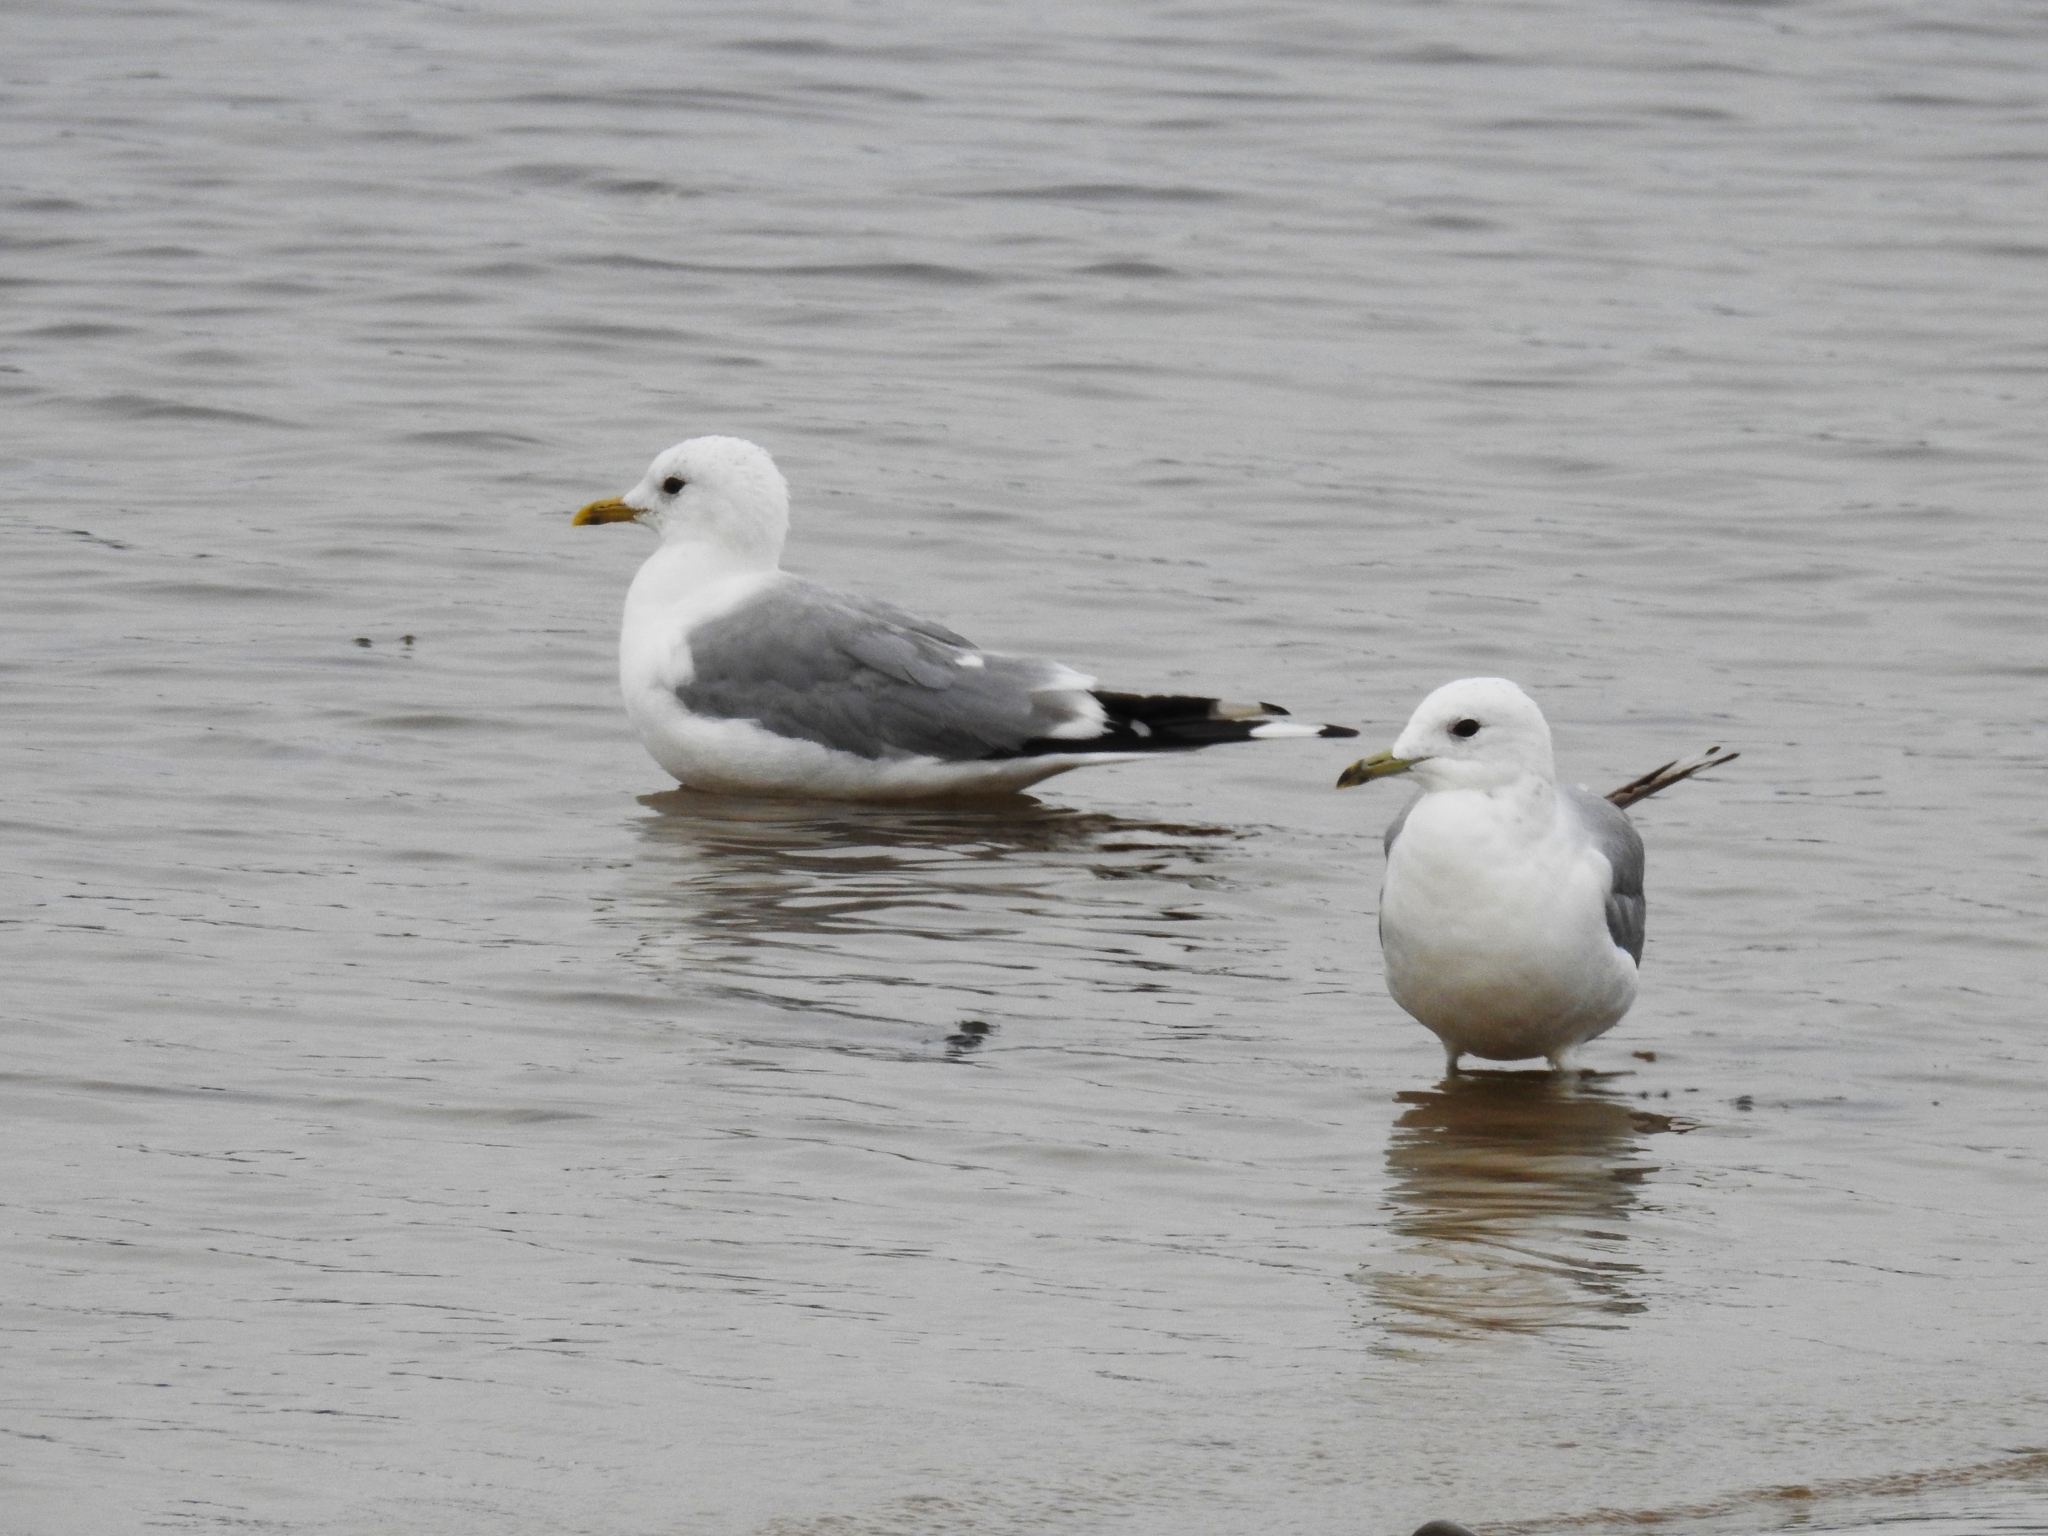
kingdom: Animalia
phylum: Chordata
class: Aves
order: Charadriiformes
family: Laridae
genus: Larus
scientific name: Larus canus
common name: Mew gull
